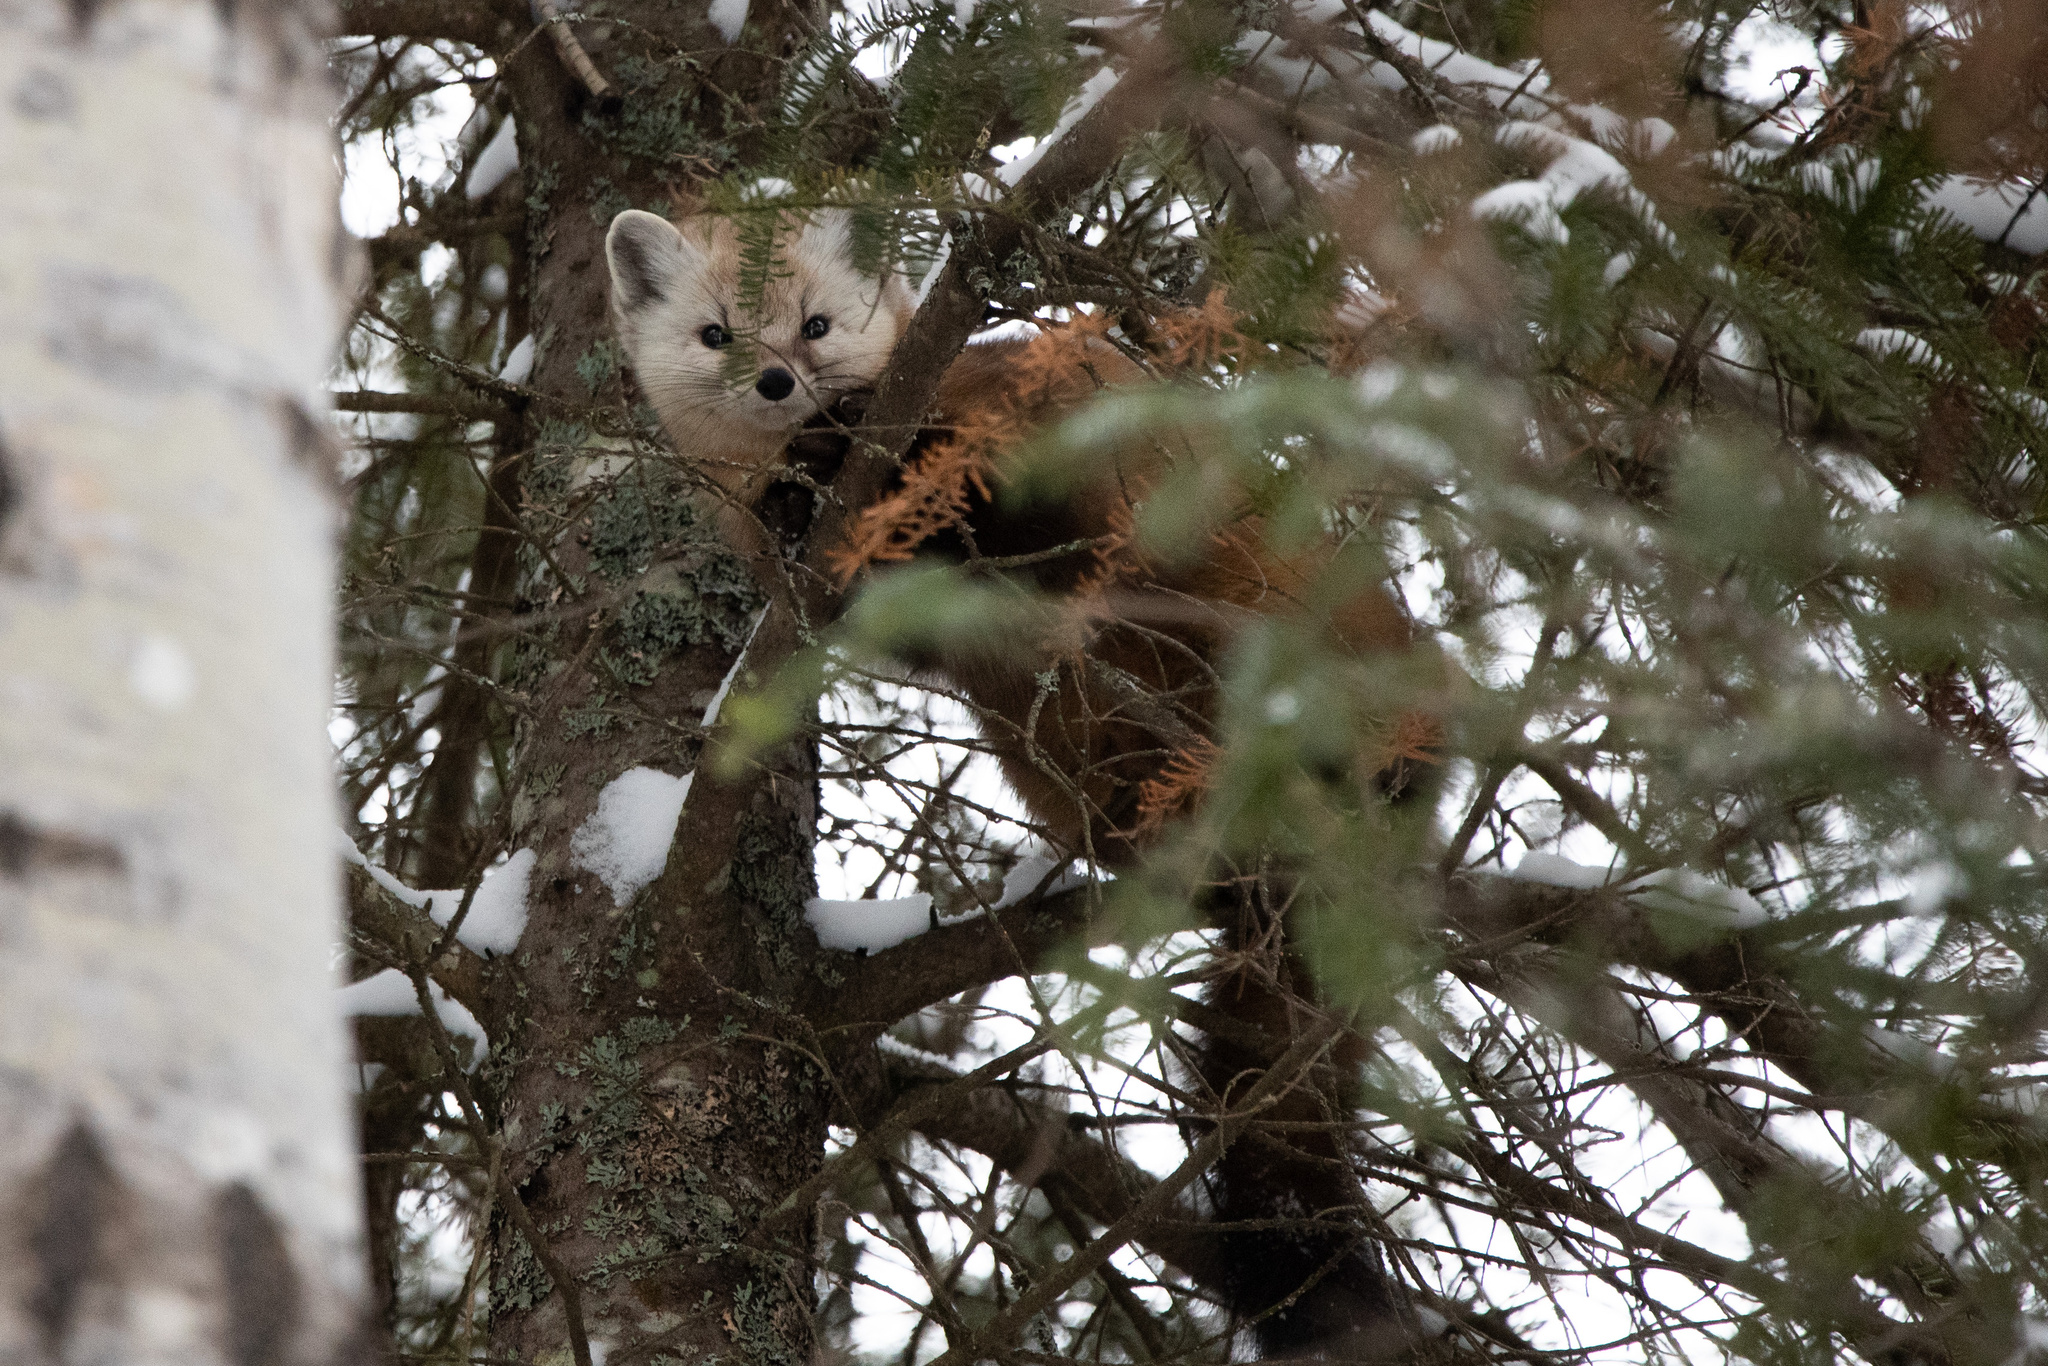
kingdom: Animalia
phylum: Chordata
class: Mammalia
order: Carnivora
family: Mustelidae
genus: Martes
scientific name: Martes americana
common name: American marten
